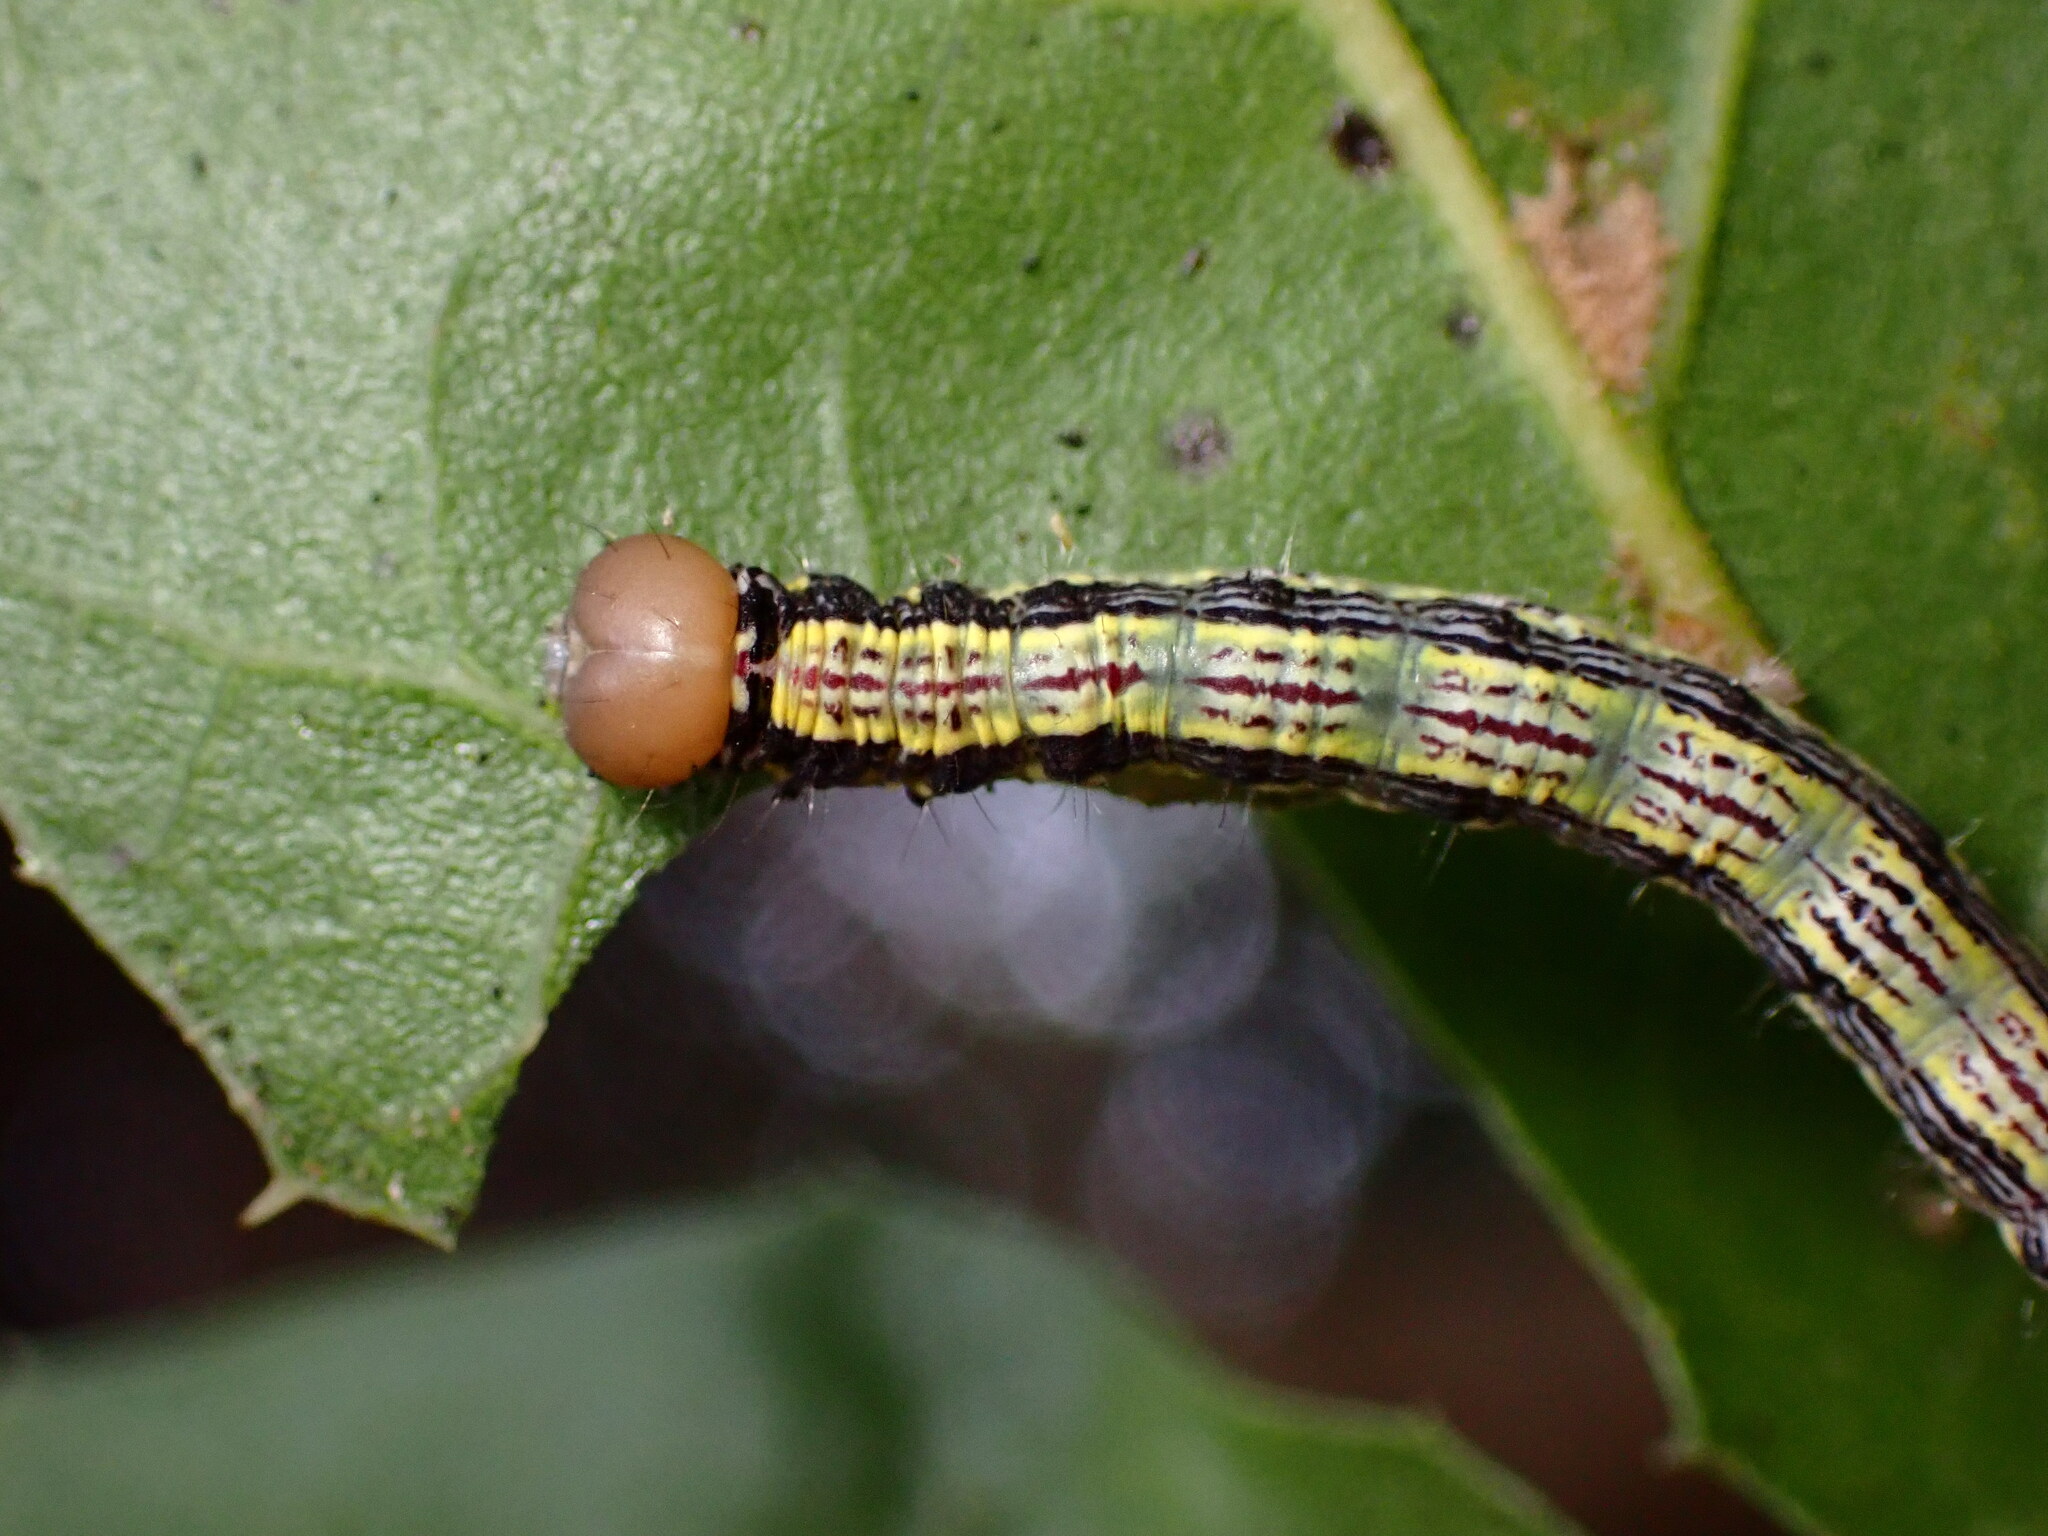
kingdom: Animalia
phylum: Arthropoda
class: Insecta
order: Lepidoptera
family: Notodontidae
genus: Phryganidia
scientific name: Phryganidia californica
